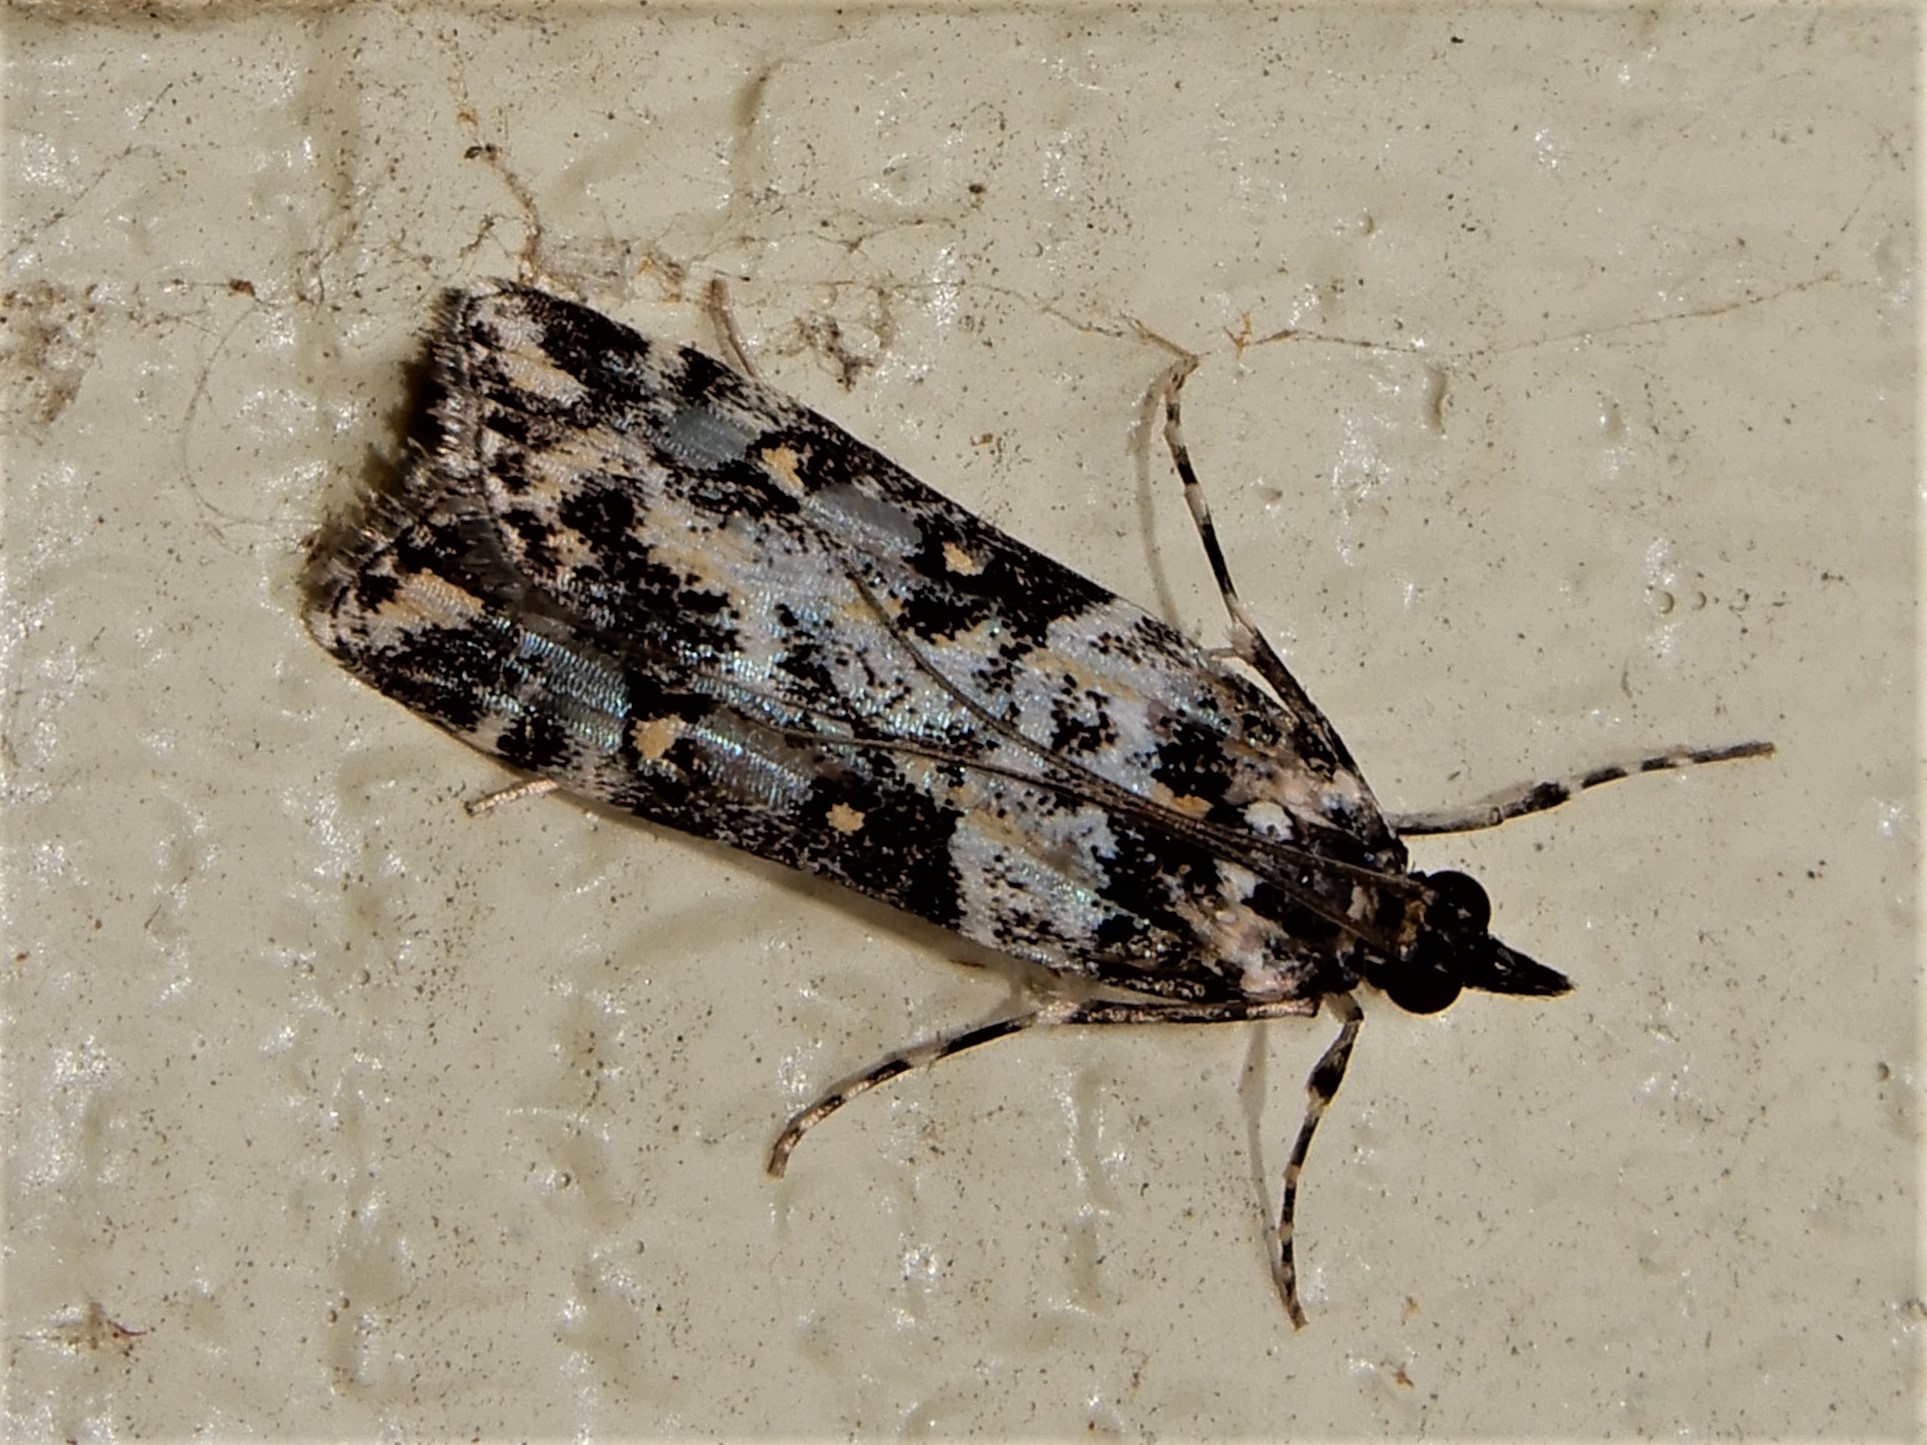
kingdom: Animalia
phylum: Arthropoda
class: Insecta
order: Lepidoptera
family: Crambidae
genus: Eudonia
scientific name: Eudonia diphtheralis
